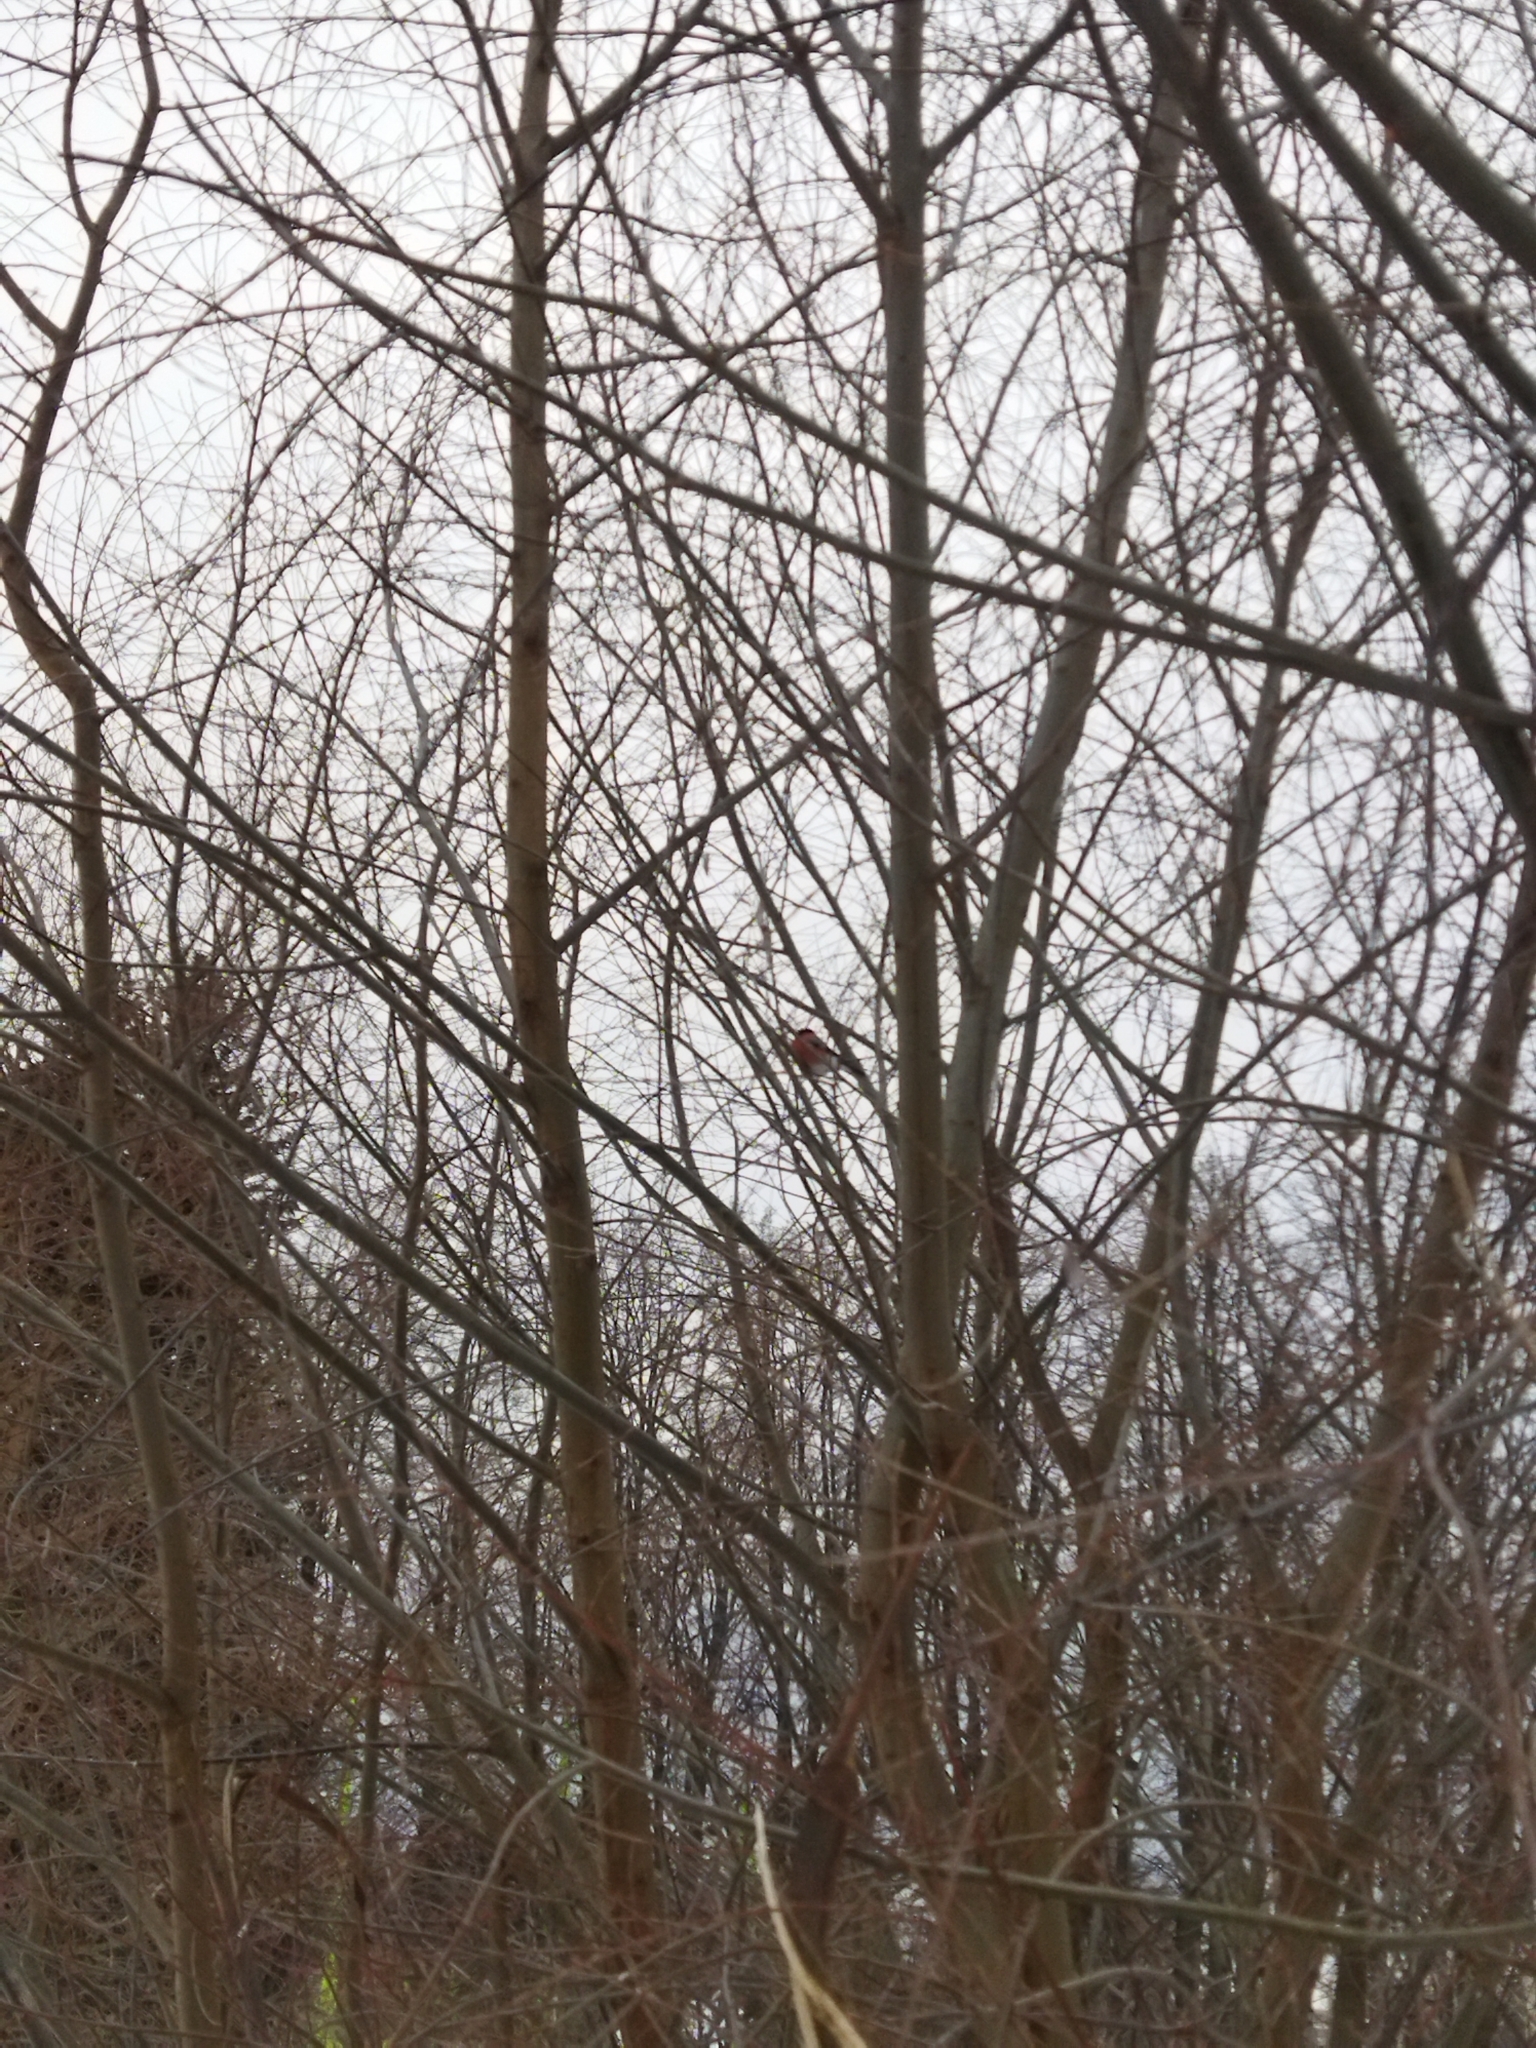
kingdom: Animalia
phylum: Chordata
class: Aves
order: Passeriformes
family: Fringillidae
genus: Pyrrhula
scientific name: Pyrrhula pyrrhula
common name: Eurasian bullfinch
